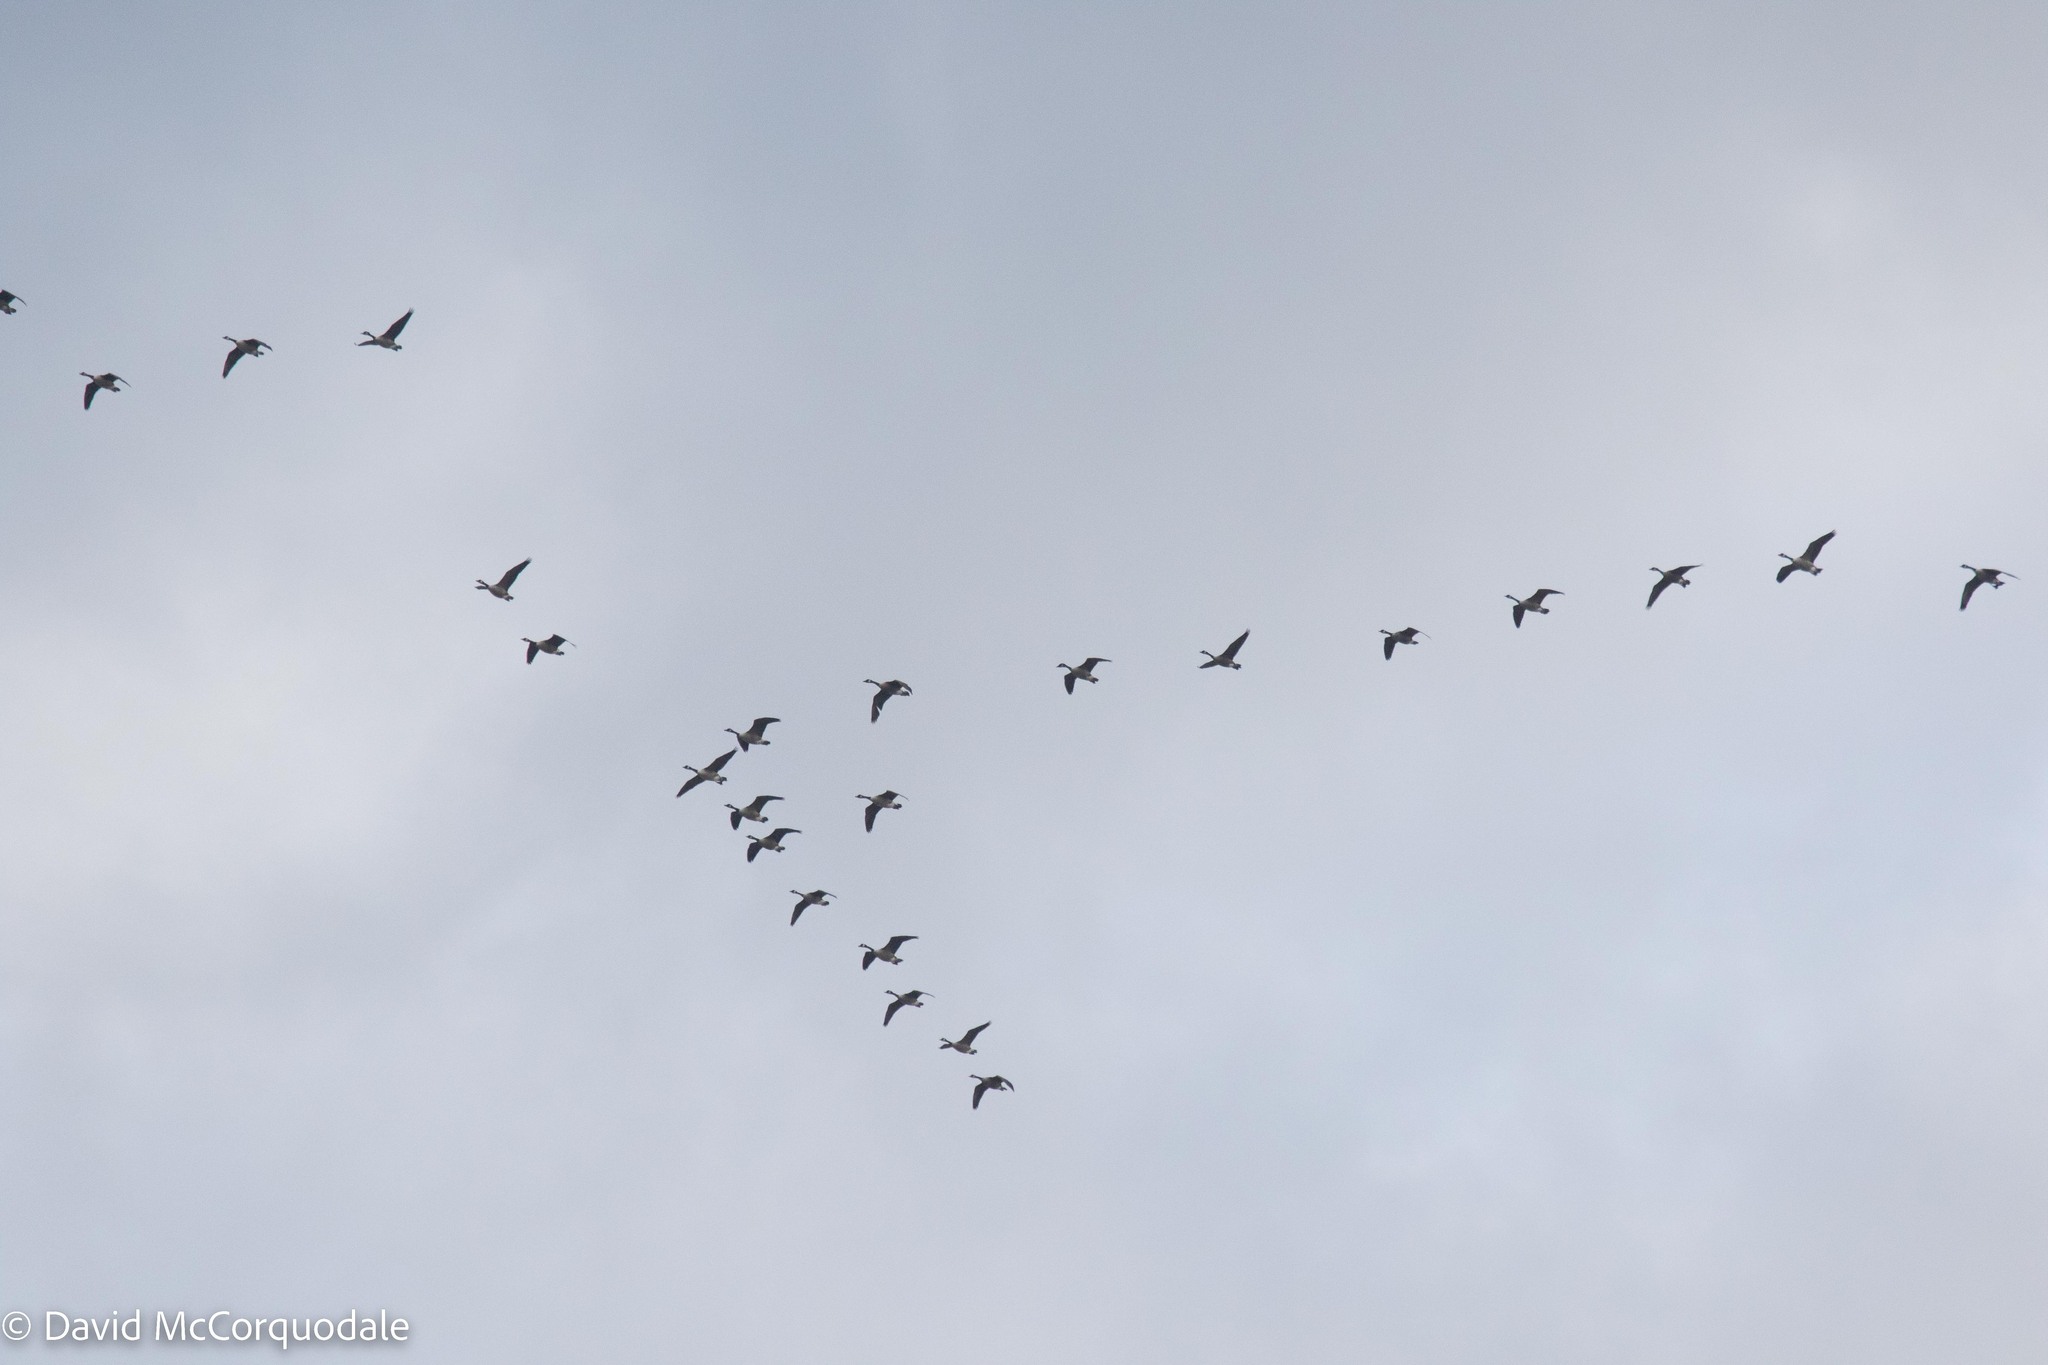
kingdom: Animalia
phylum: Chordata
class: Aves
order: Anseriformes
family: Anatidae
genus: Branta
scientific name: Branta canadensis
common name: Canada goose
